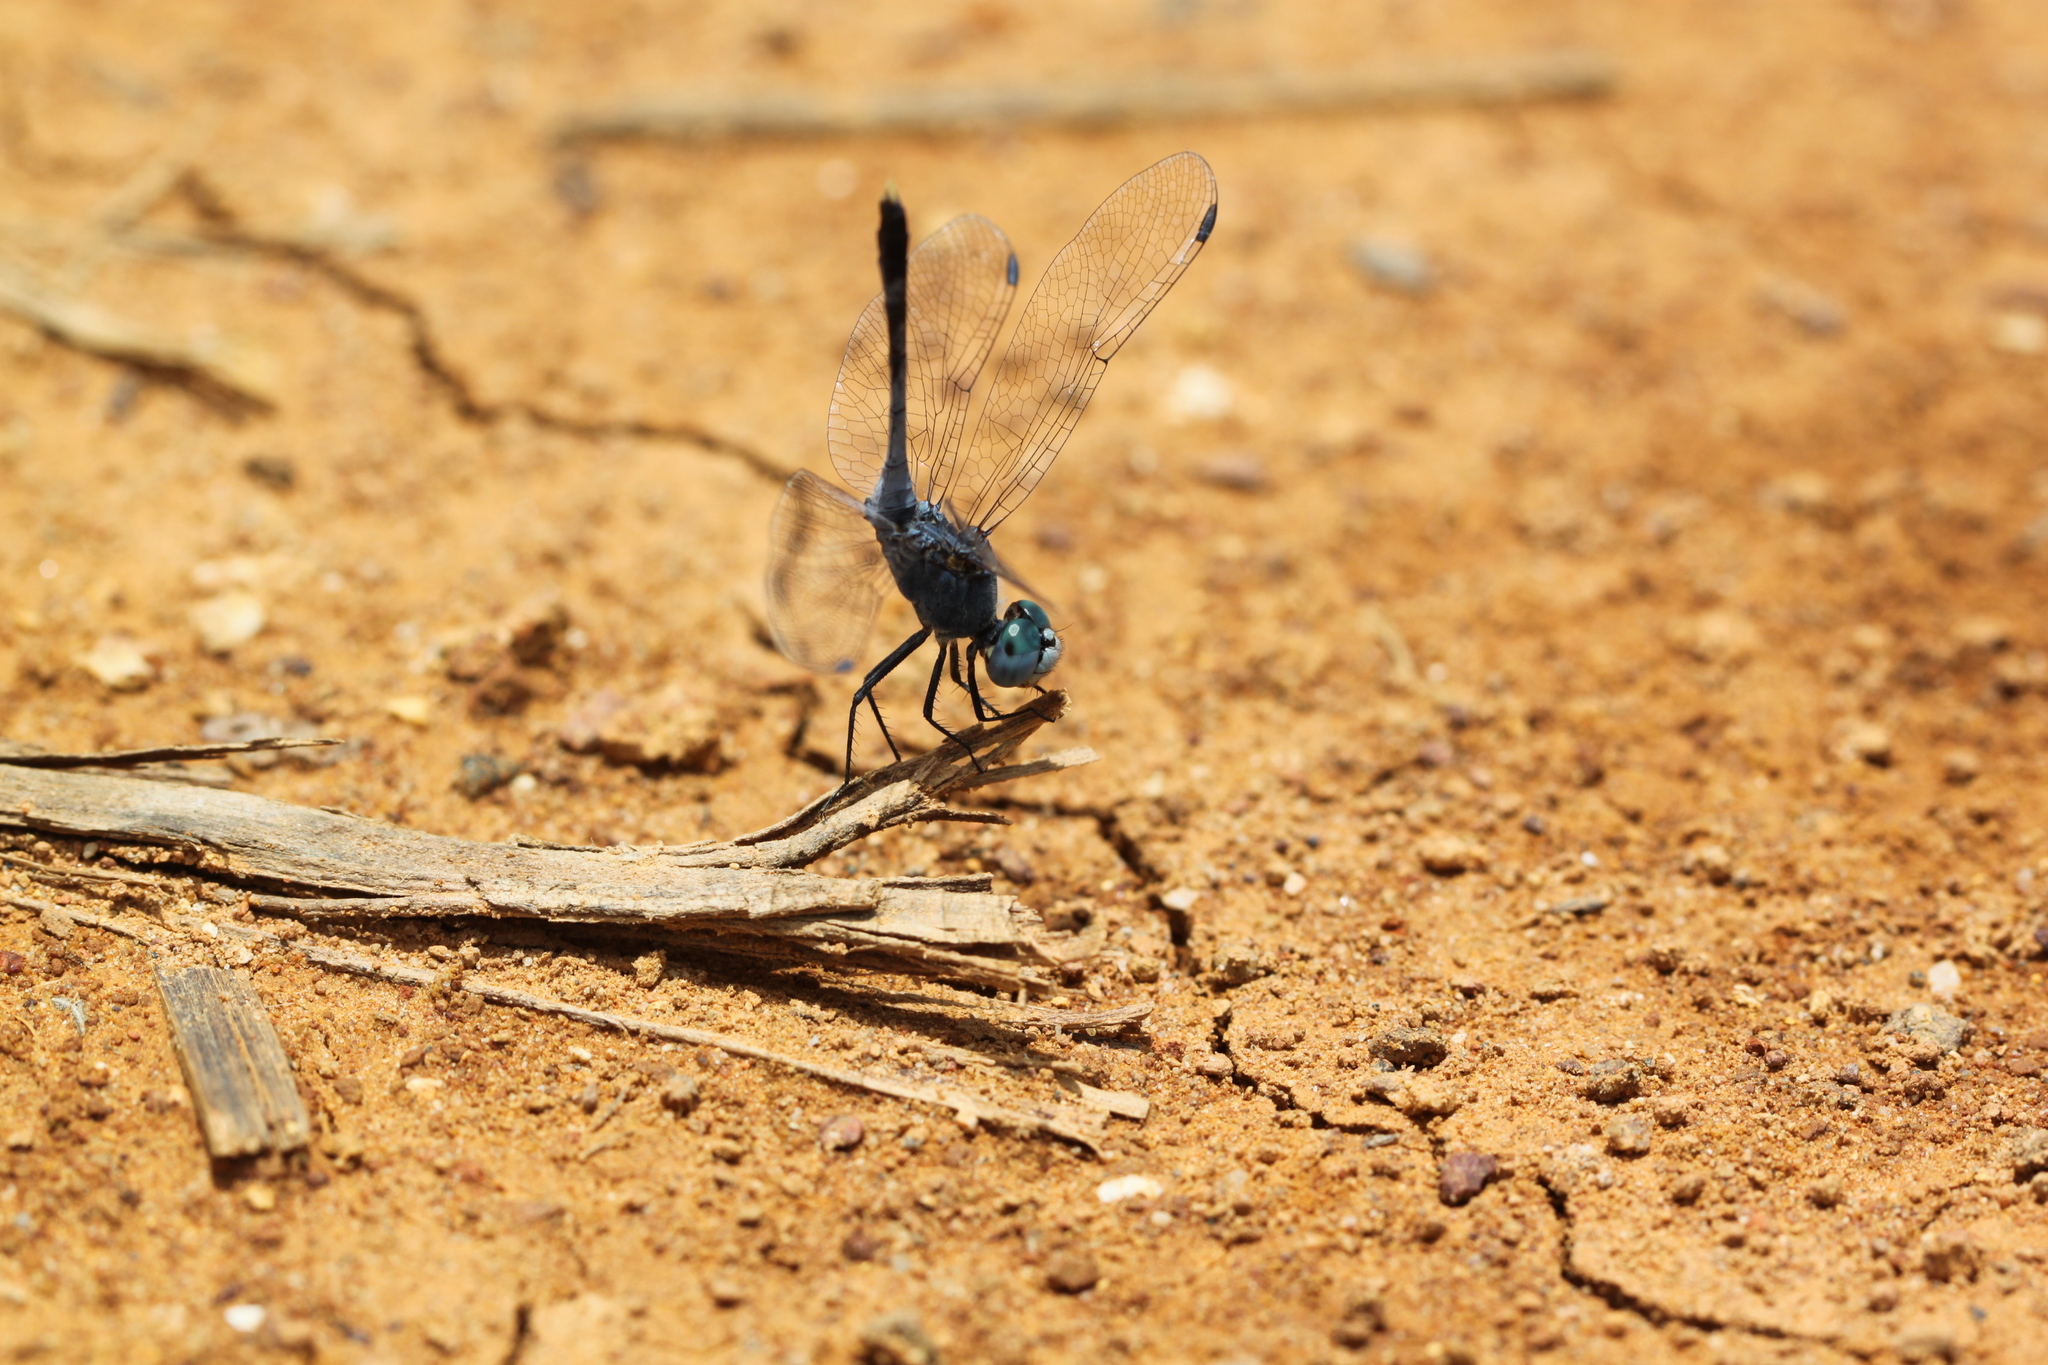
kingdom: Animalia
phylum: Arthropoda
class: Insecta
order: Odonata
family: Libellulidae
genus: Diplacodes
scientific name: Diplacodes trivialis
